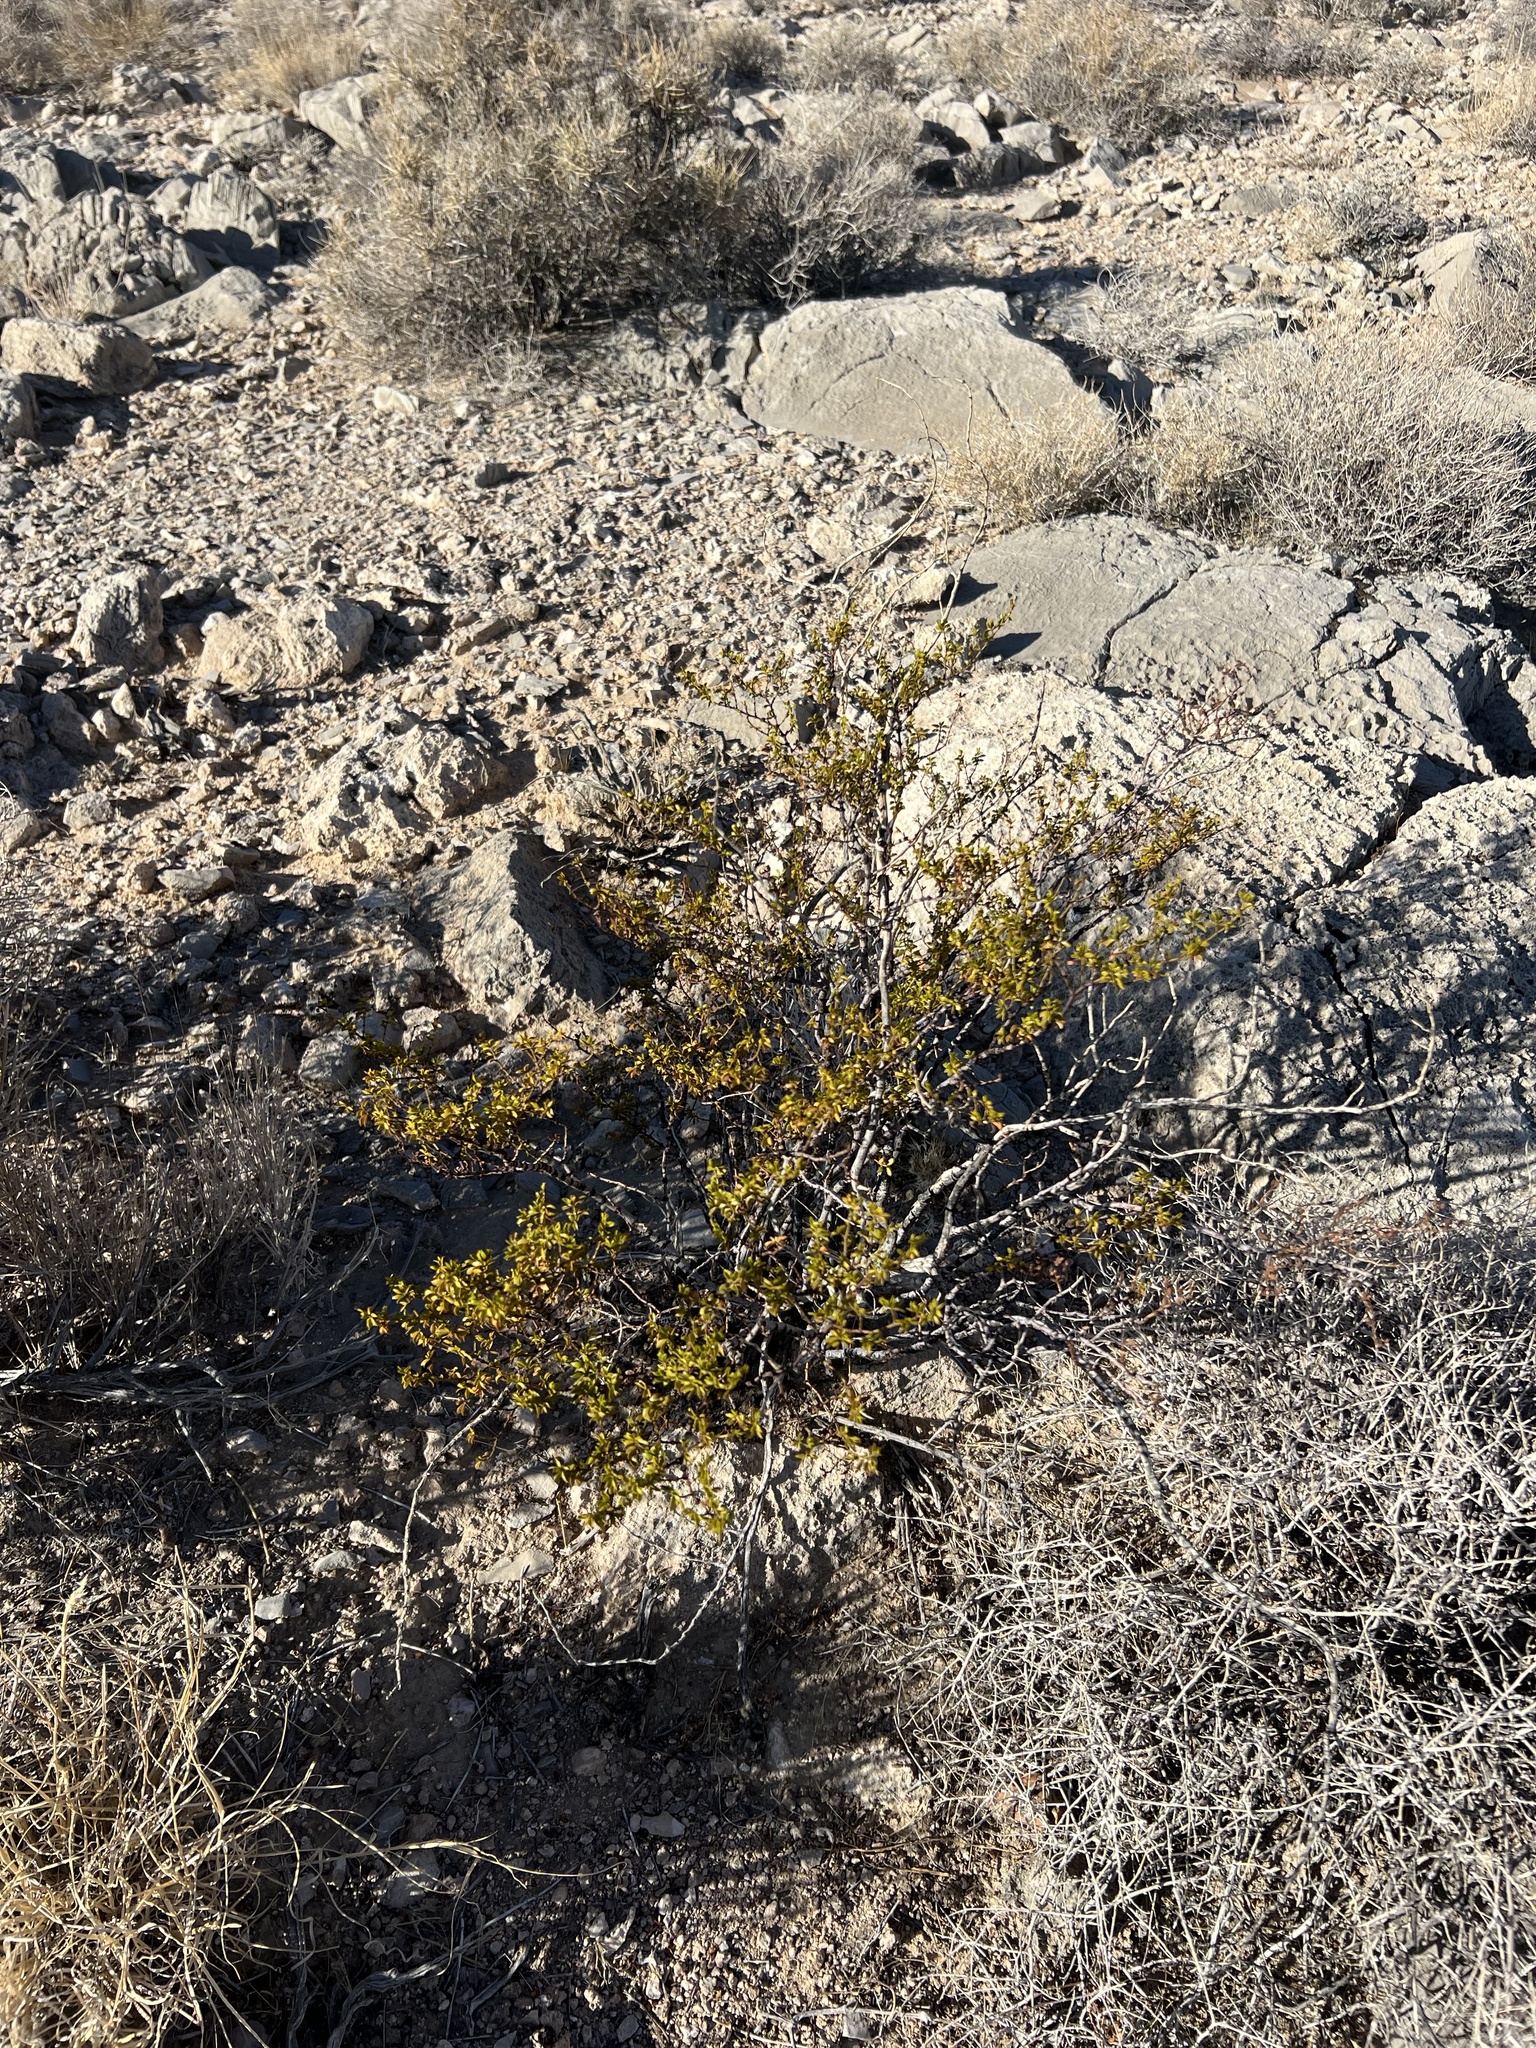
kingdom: Plantae
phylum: Tracheophyta
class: Magnoliopsida
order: Zygophyllales
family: Zygophyllaceae
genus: Larrea
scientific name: Larrea tridentata
